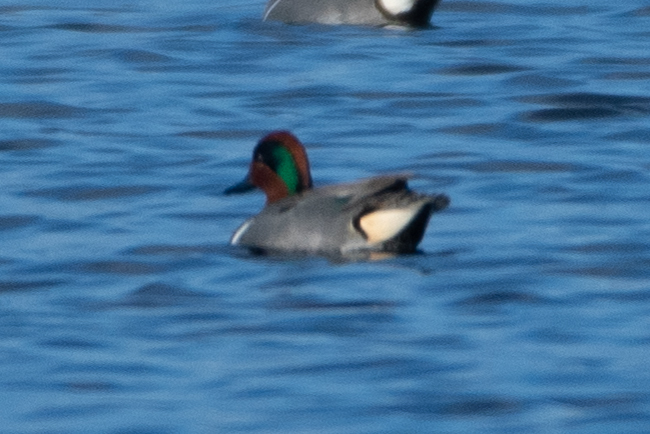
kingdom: Animalia
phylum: Chordata
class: Aves
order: Anseriformes
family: Anatidae
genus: Anas
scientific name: Anas crecca
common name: Eurasian teal
